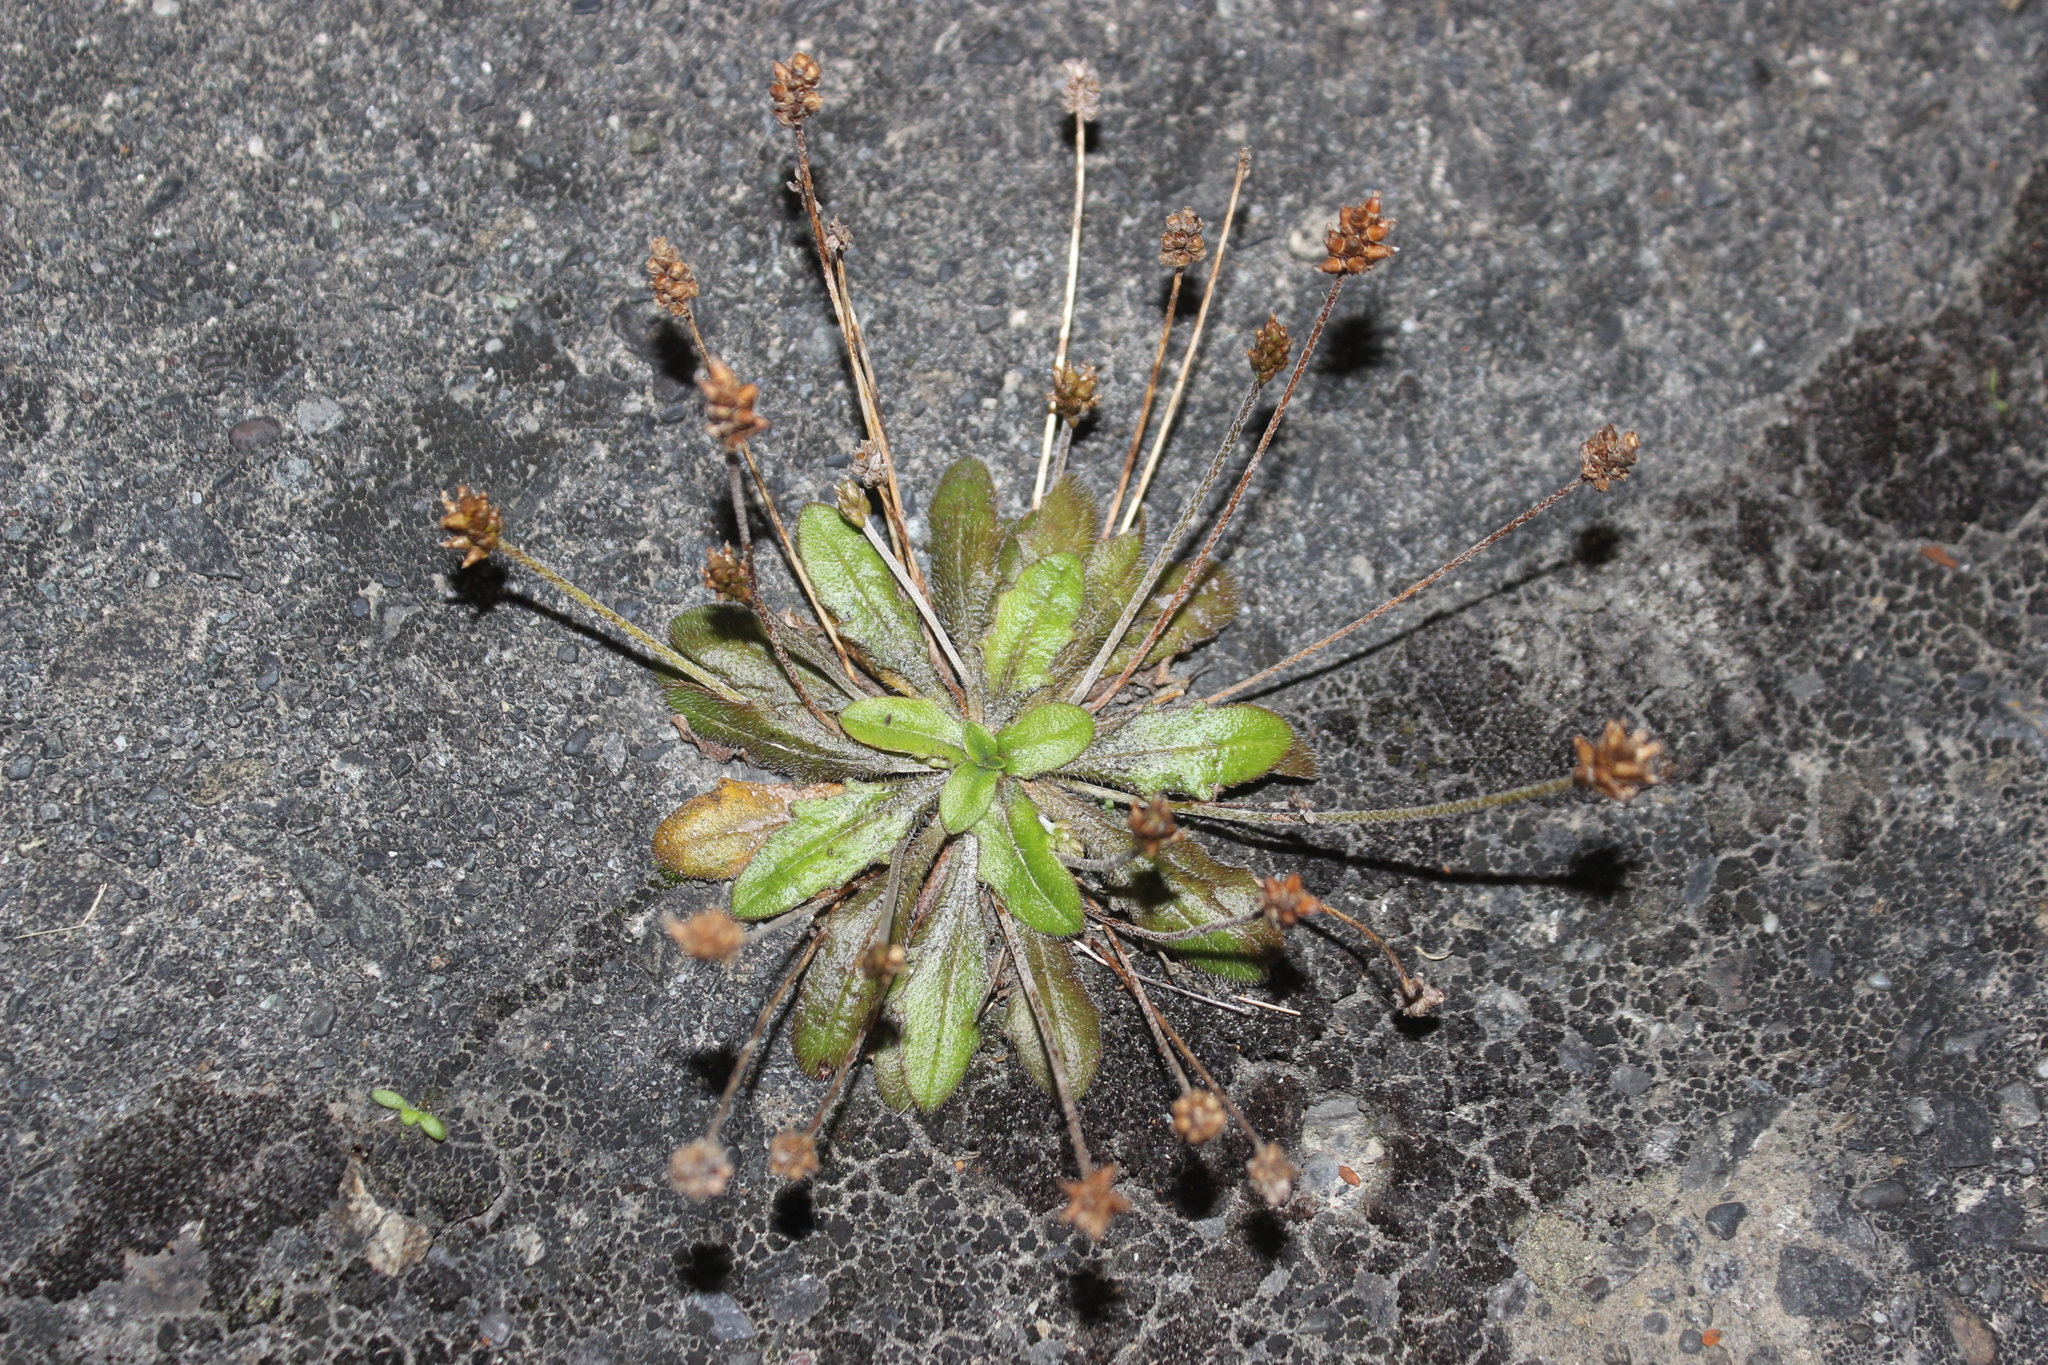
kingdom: Plantae
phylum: Tracheophyta
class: Magnoliopsida
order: Lamiales
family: Plantaginaceae
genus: Plantago
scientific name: Plantago raoulii
